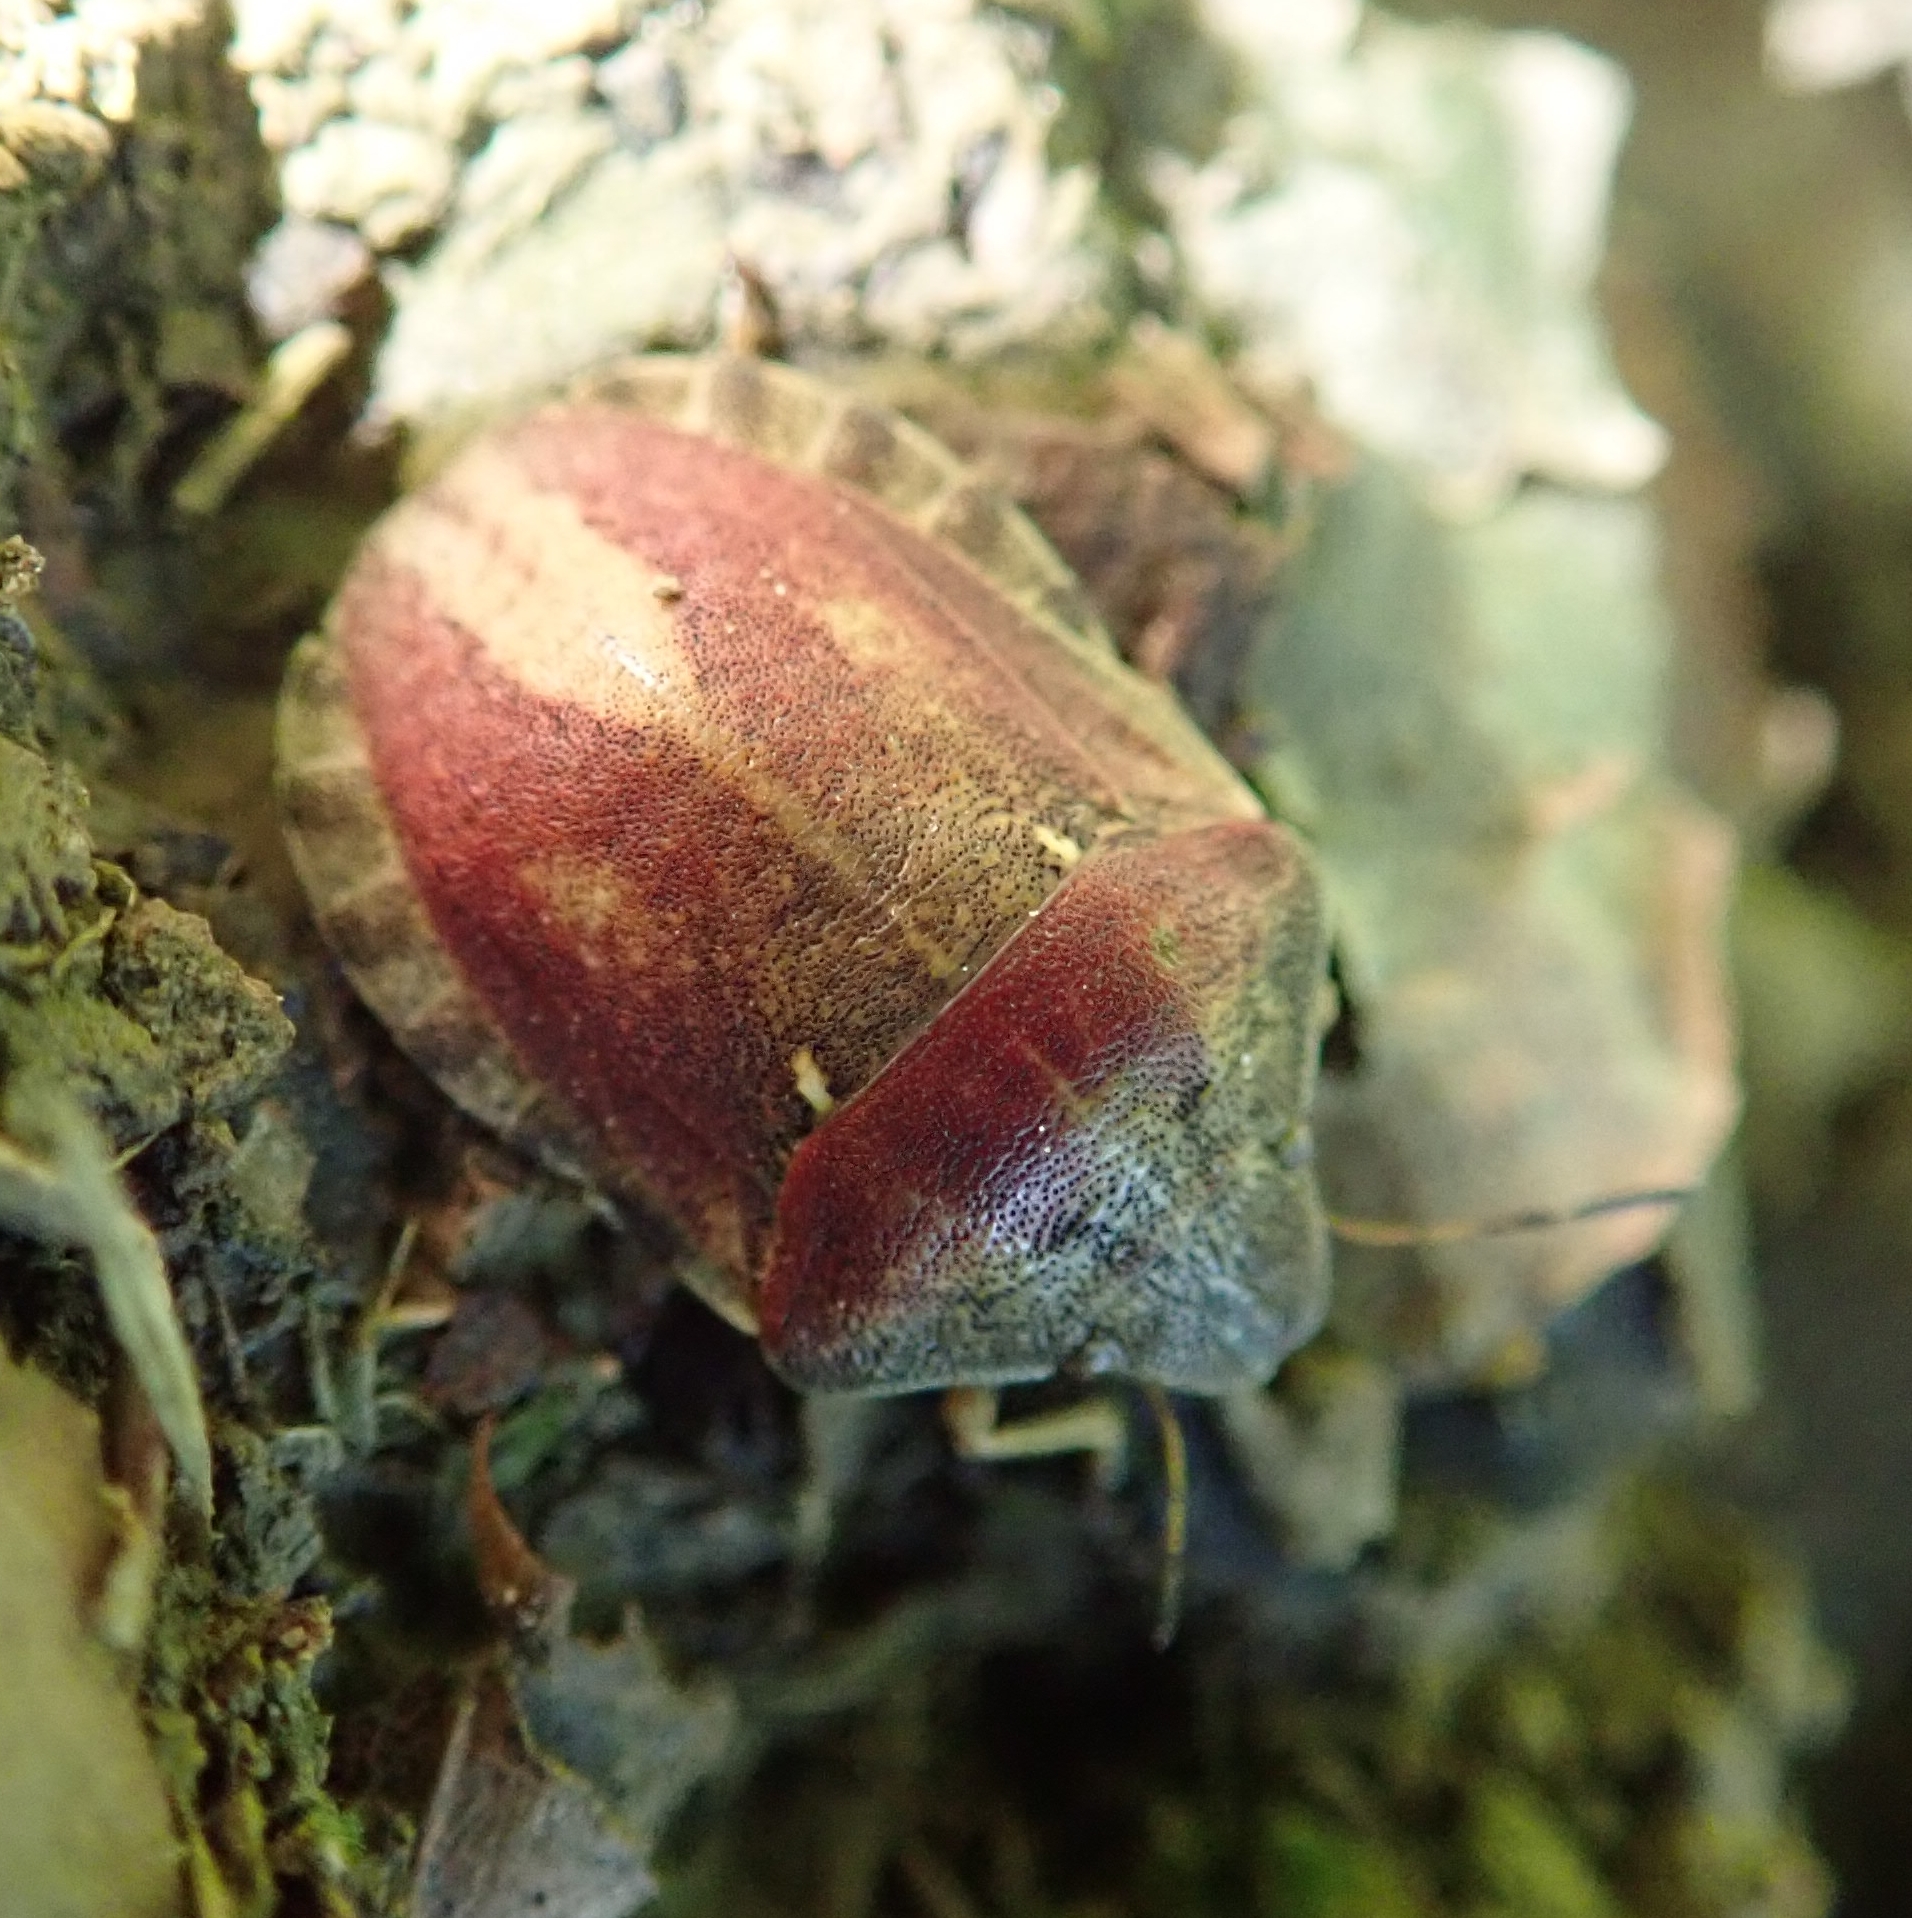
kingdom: Animalia
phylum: Arthropoda
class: Insecta
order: Hemiptera
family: Scutelleridae
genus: Eurygaster
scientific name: Eurygaster maura
